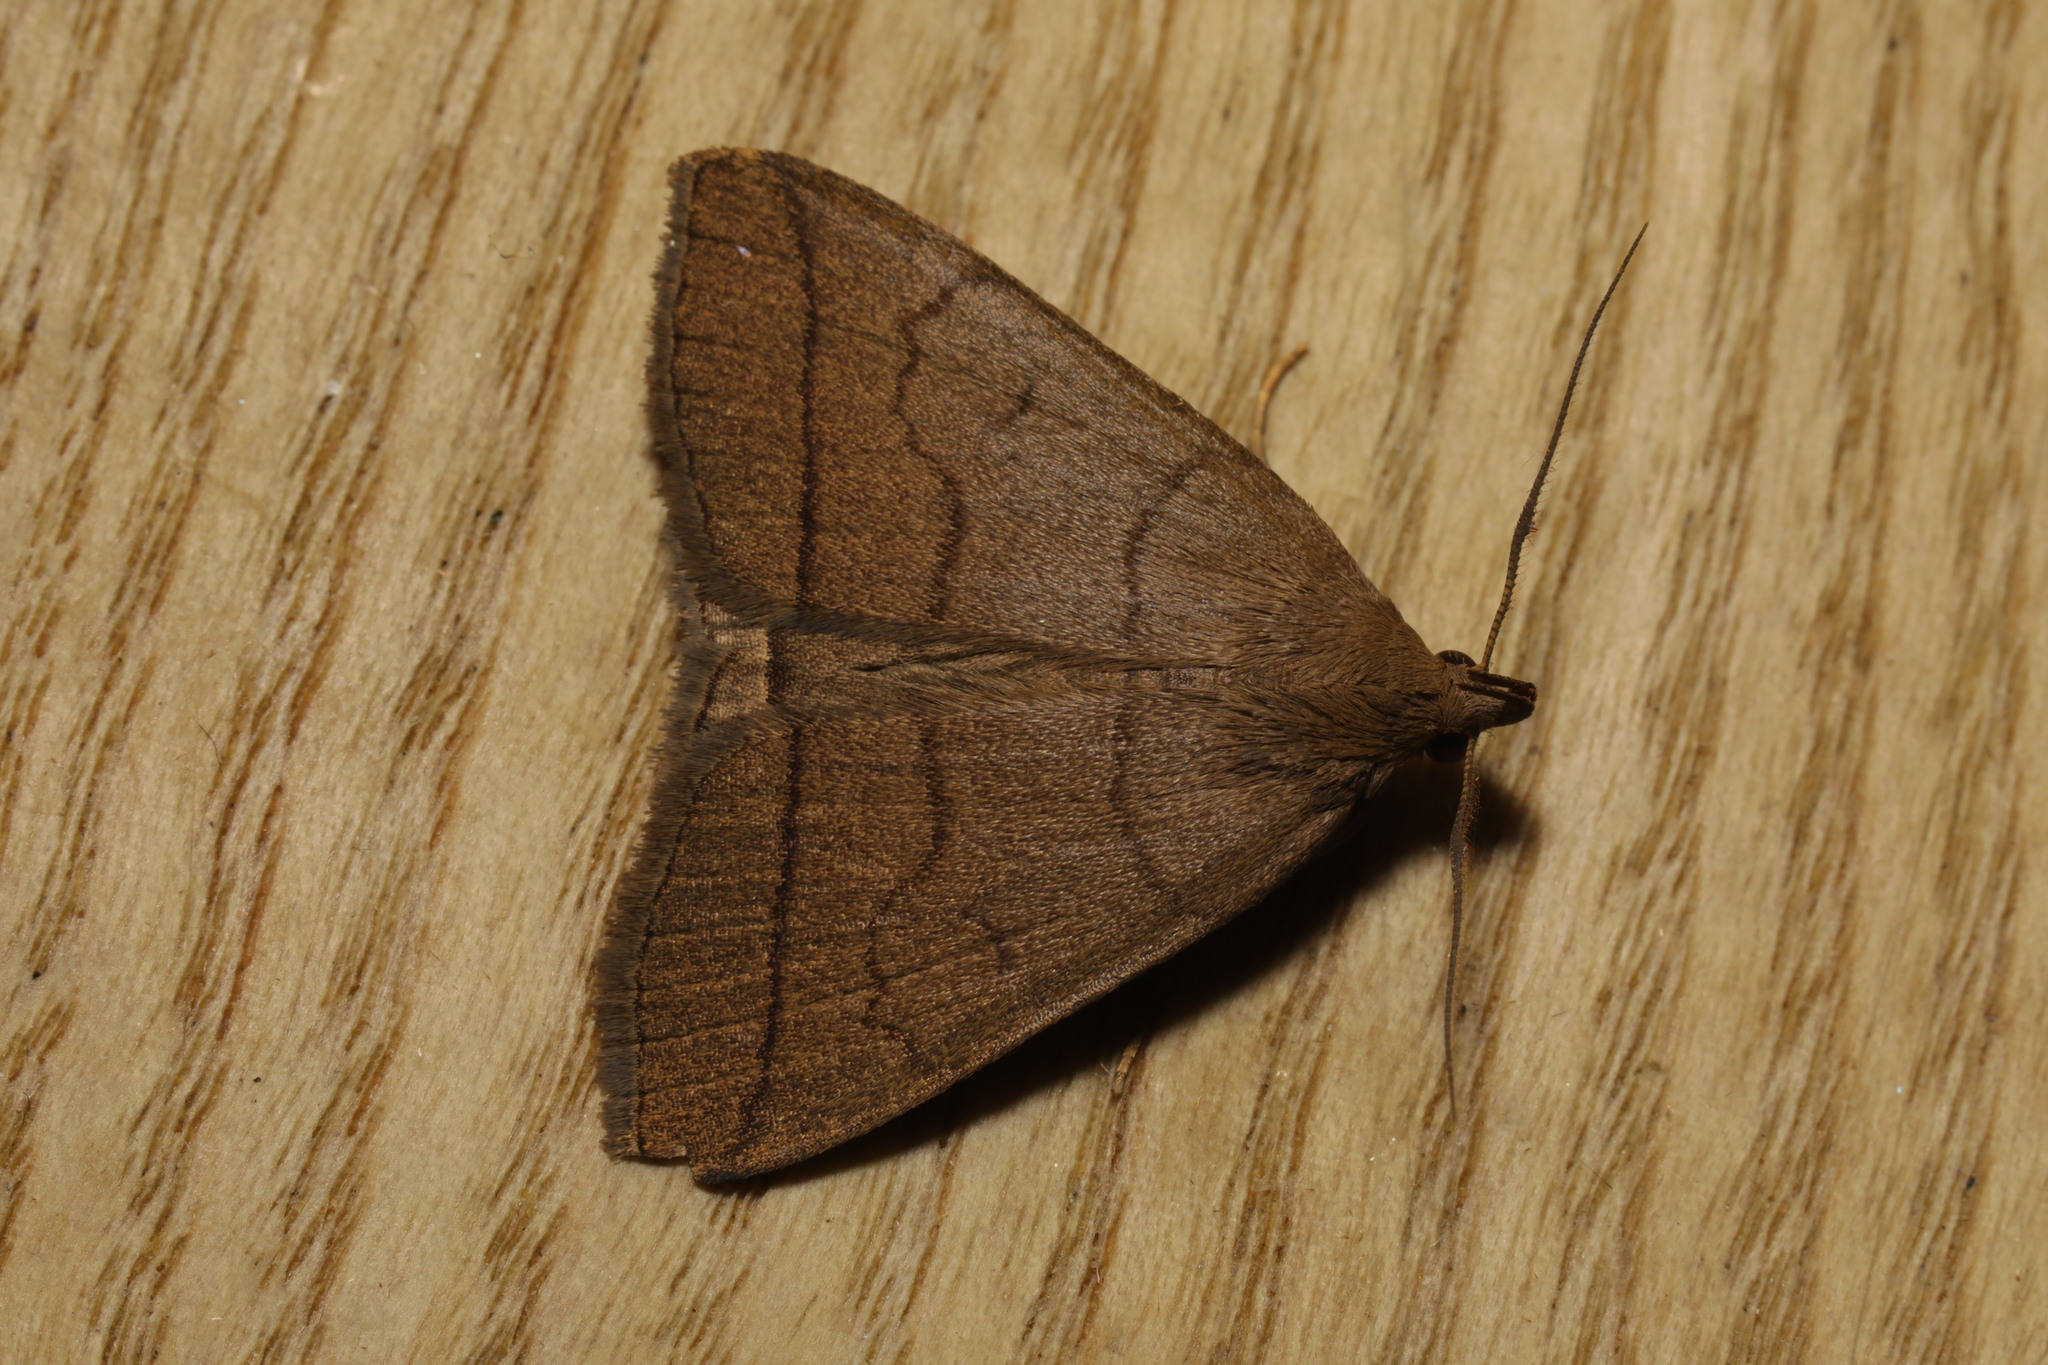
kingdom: Animalia
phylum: Arthropoda
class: Insecta
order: Lepidoptera
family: Erebidae
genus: Herminia
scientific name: Herminia tarsipennalis
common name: Fan-foot
